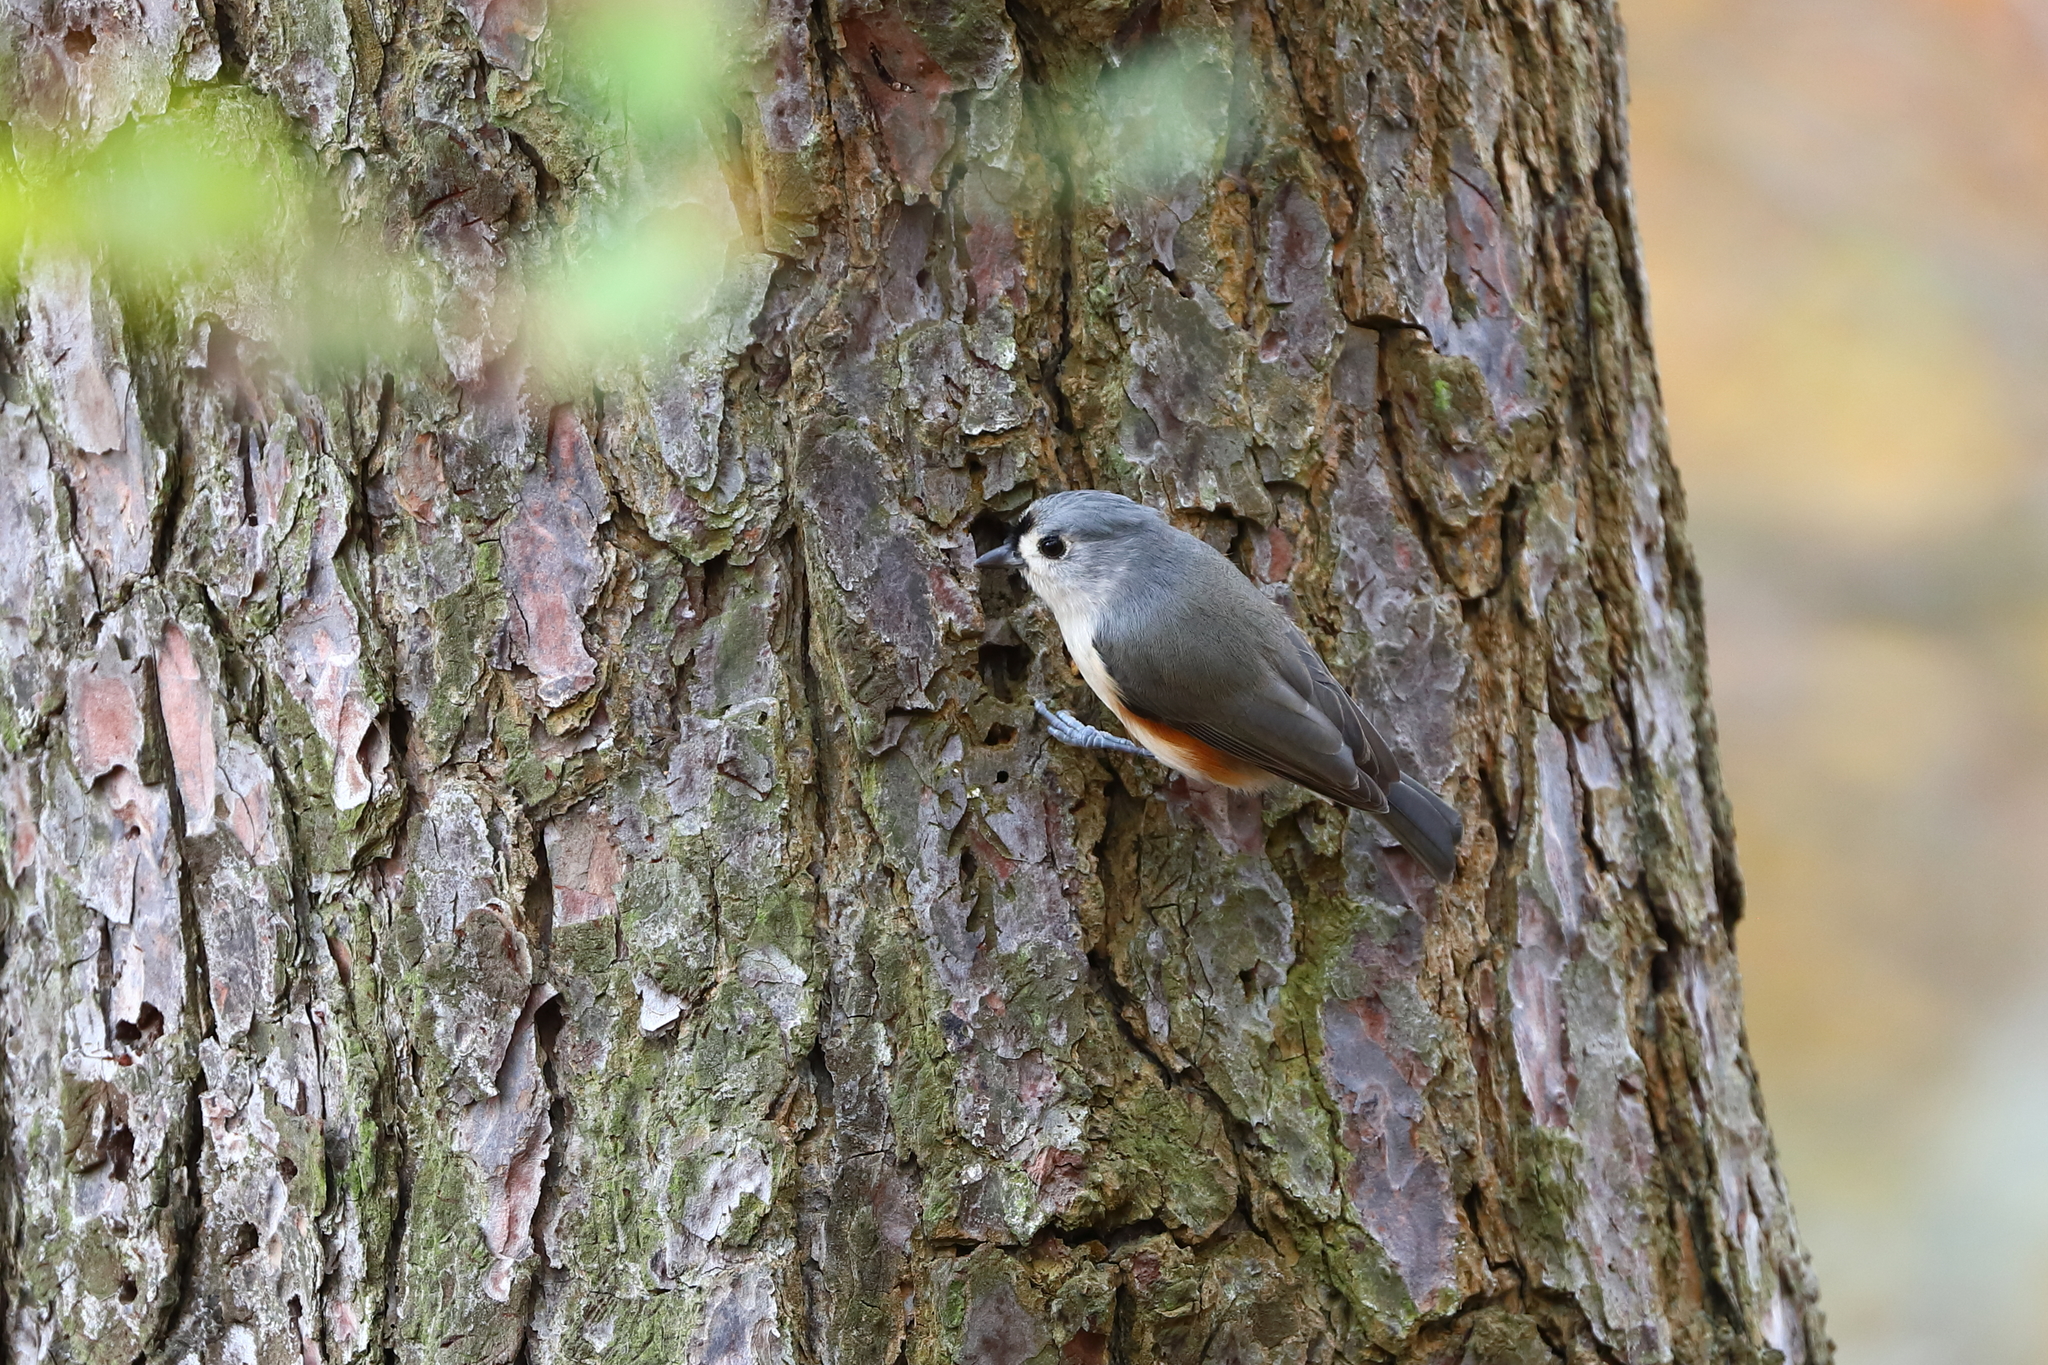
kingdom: Animalia
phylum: Chordata
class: Aves
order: Passeriformes
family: Paridae
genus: Baeolophus
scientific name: Baeolophus bicolor
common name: Tufted titmouse
